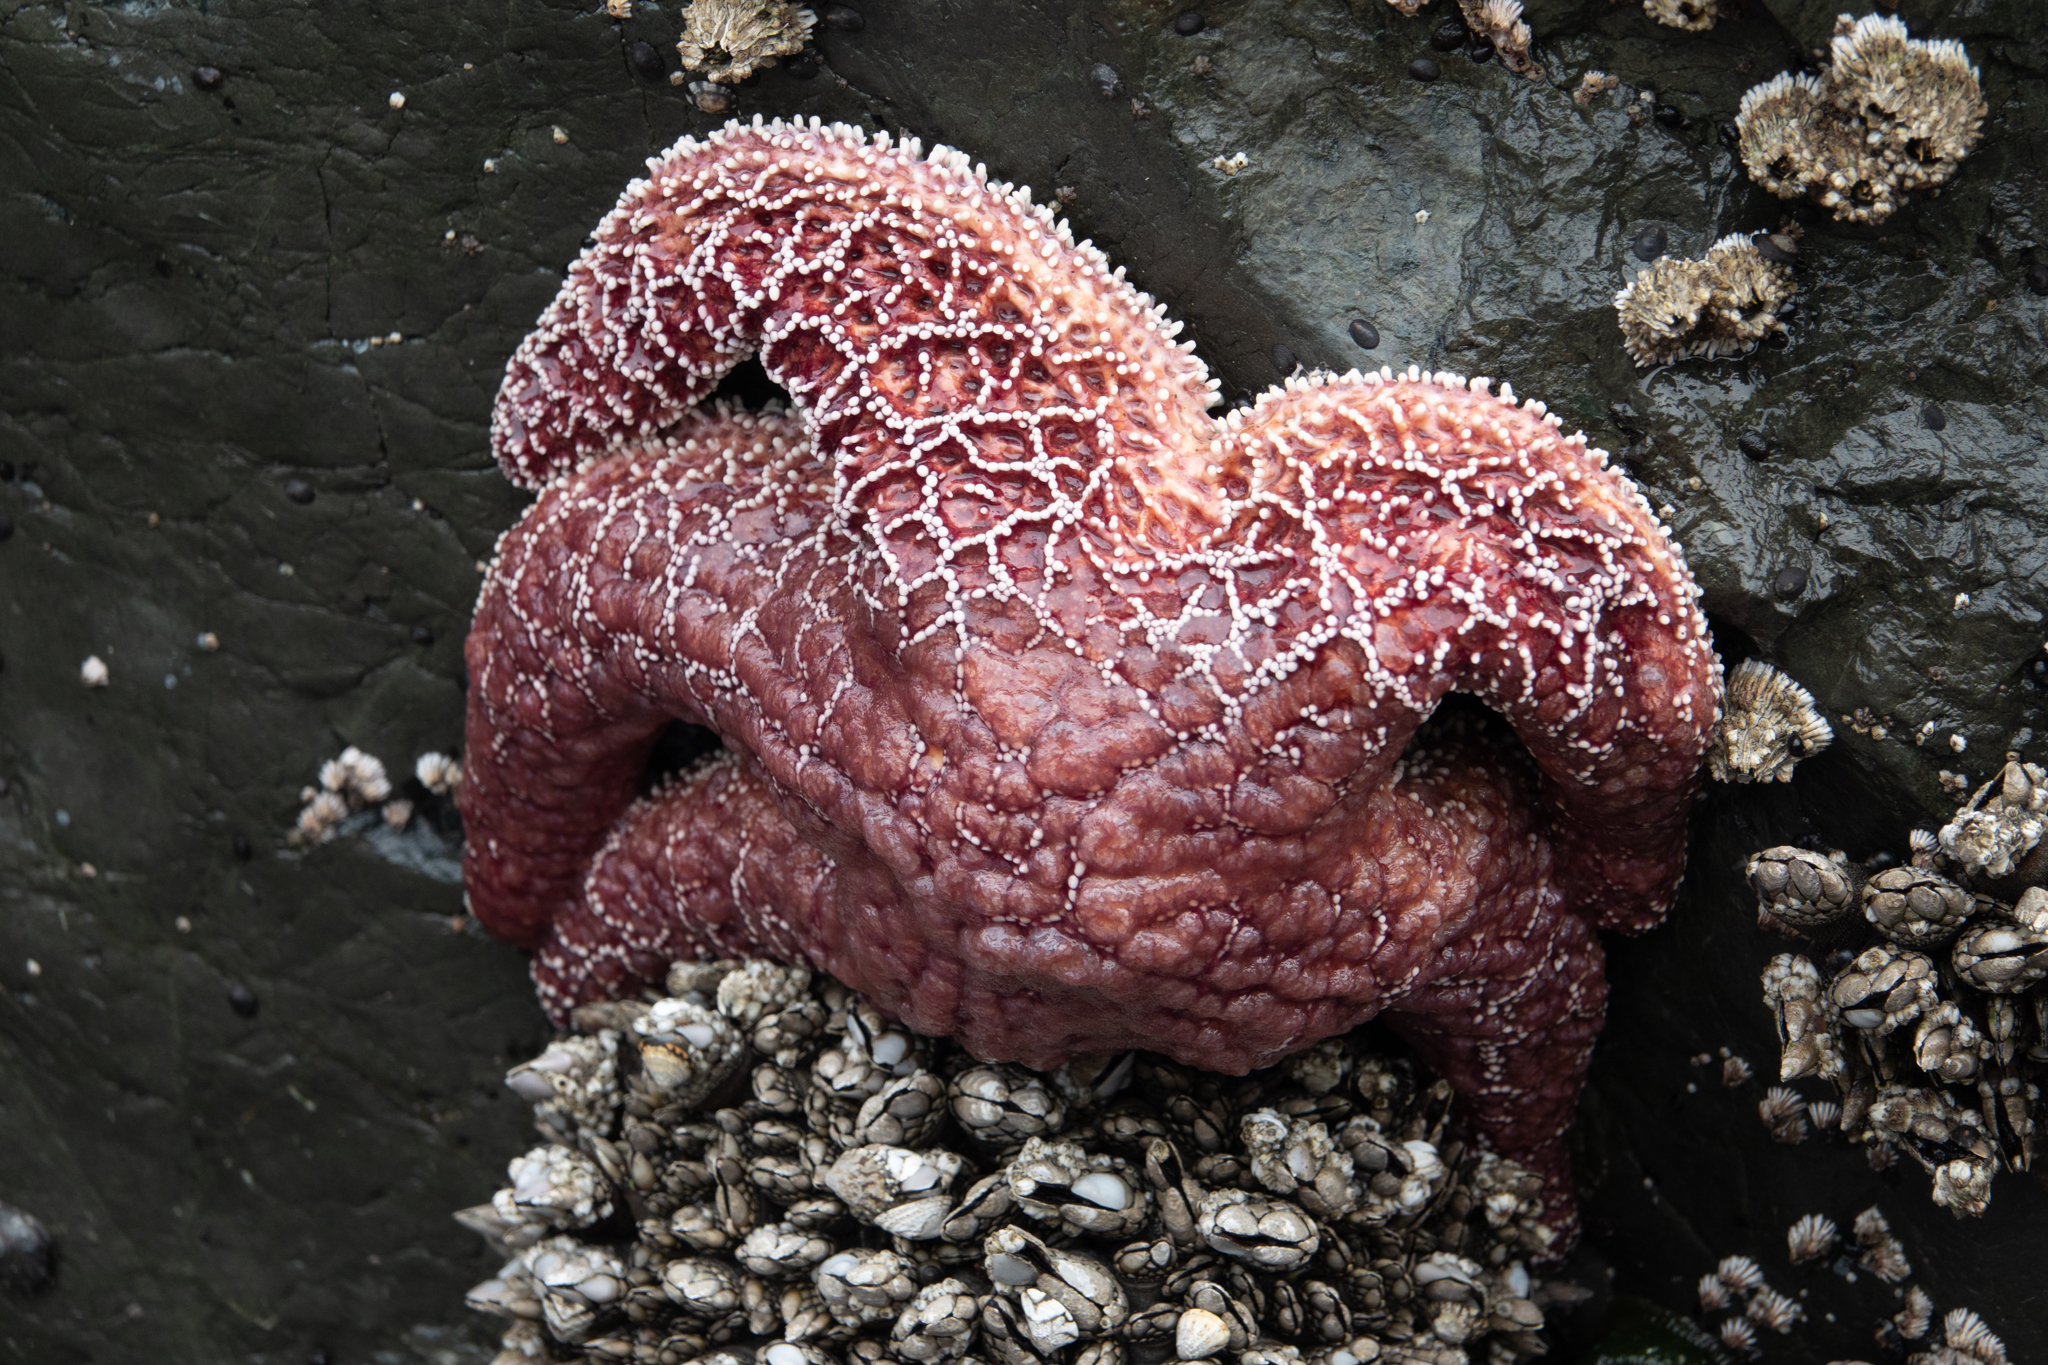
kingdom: Animalia
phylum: Echinodermata
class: Asteroidea
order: Forcipulatida
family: Asteriidae
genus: Pisaster
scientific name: Pisaster ochraceus
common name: Ochre stars
